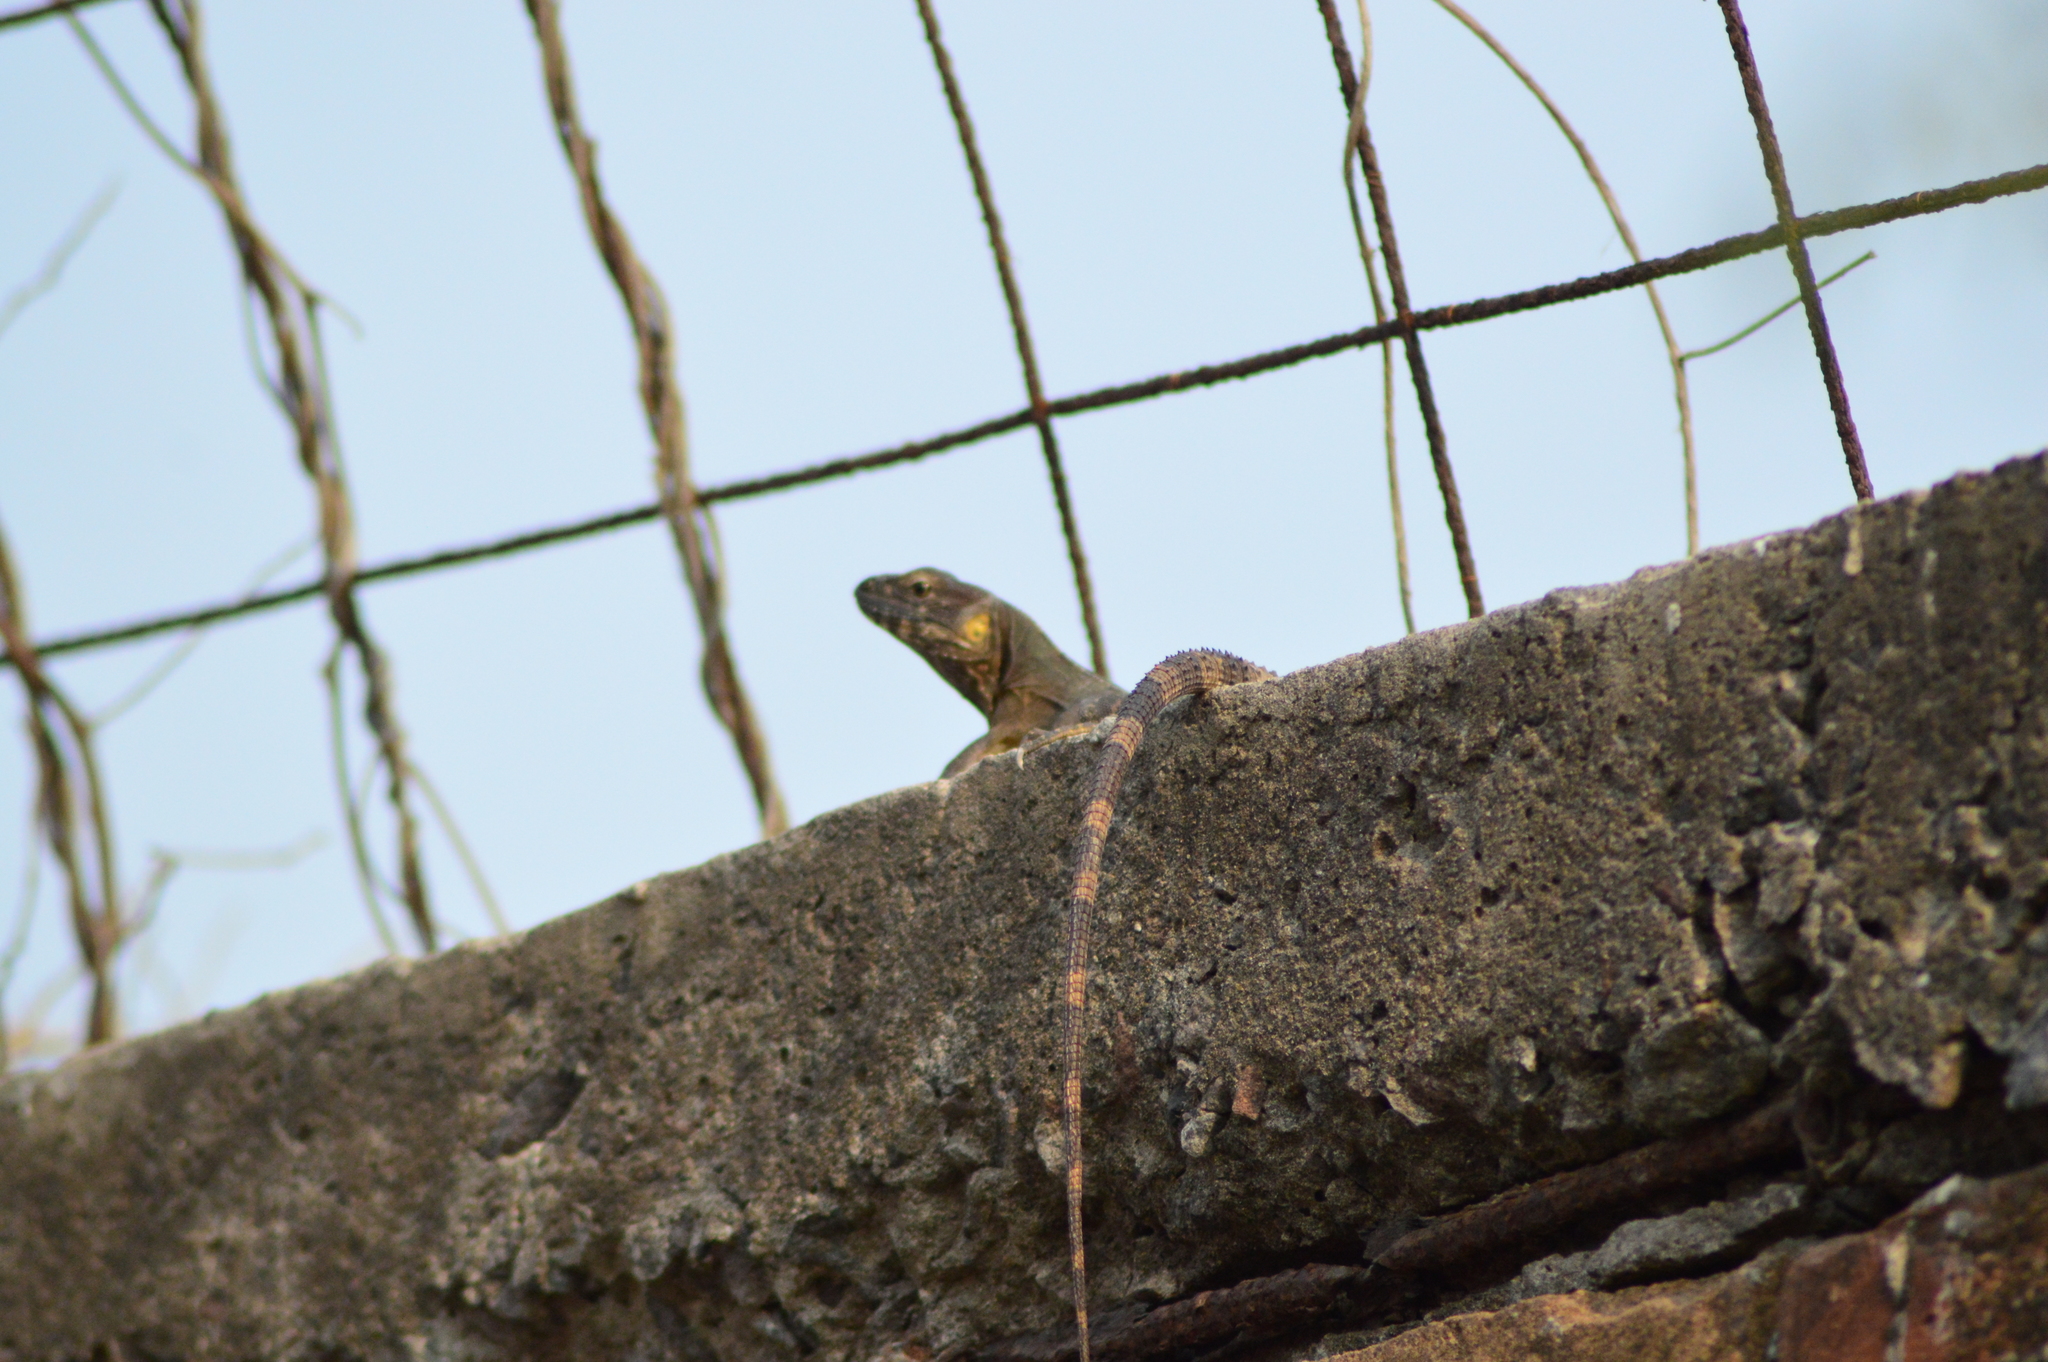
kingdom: Animalia
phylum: Chordata
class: Squamata
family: Iguanidae
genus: Ctenosaura
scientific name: Ctenosaura acanthura
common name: Northeastern spinytail iguana
